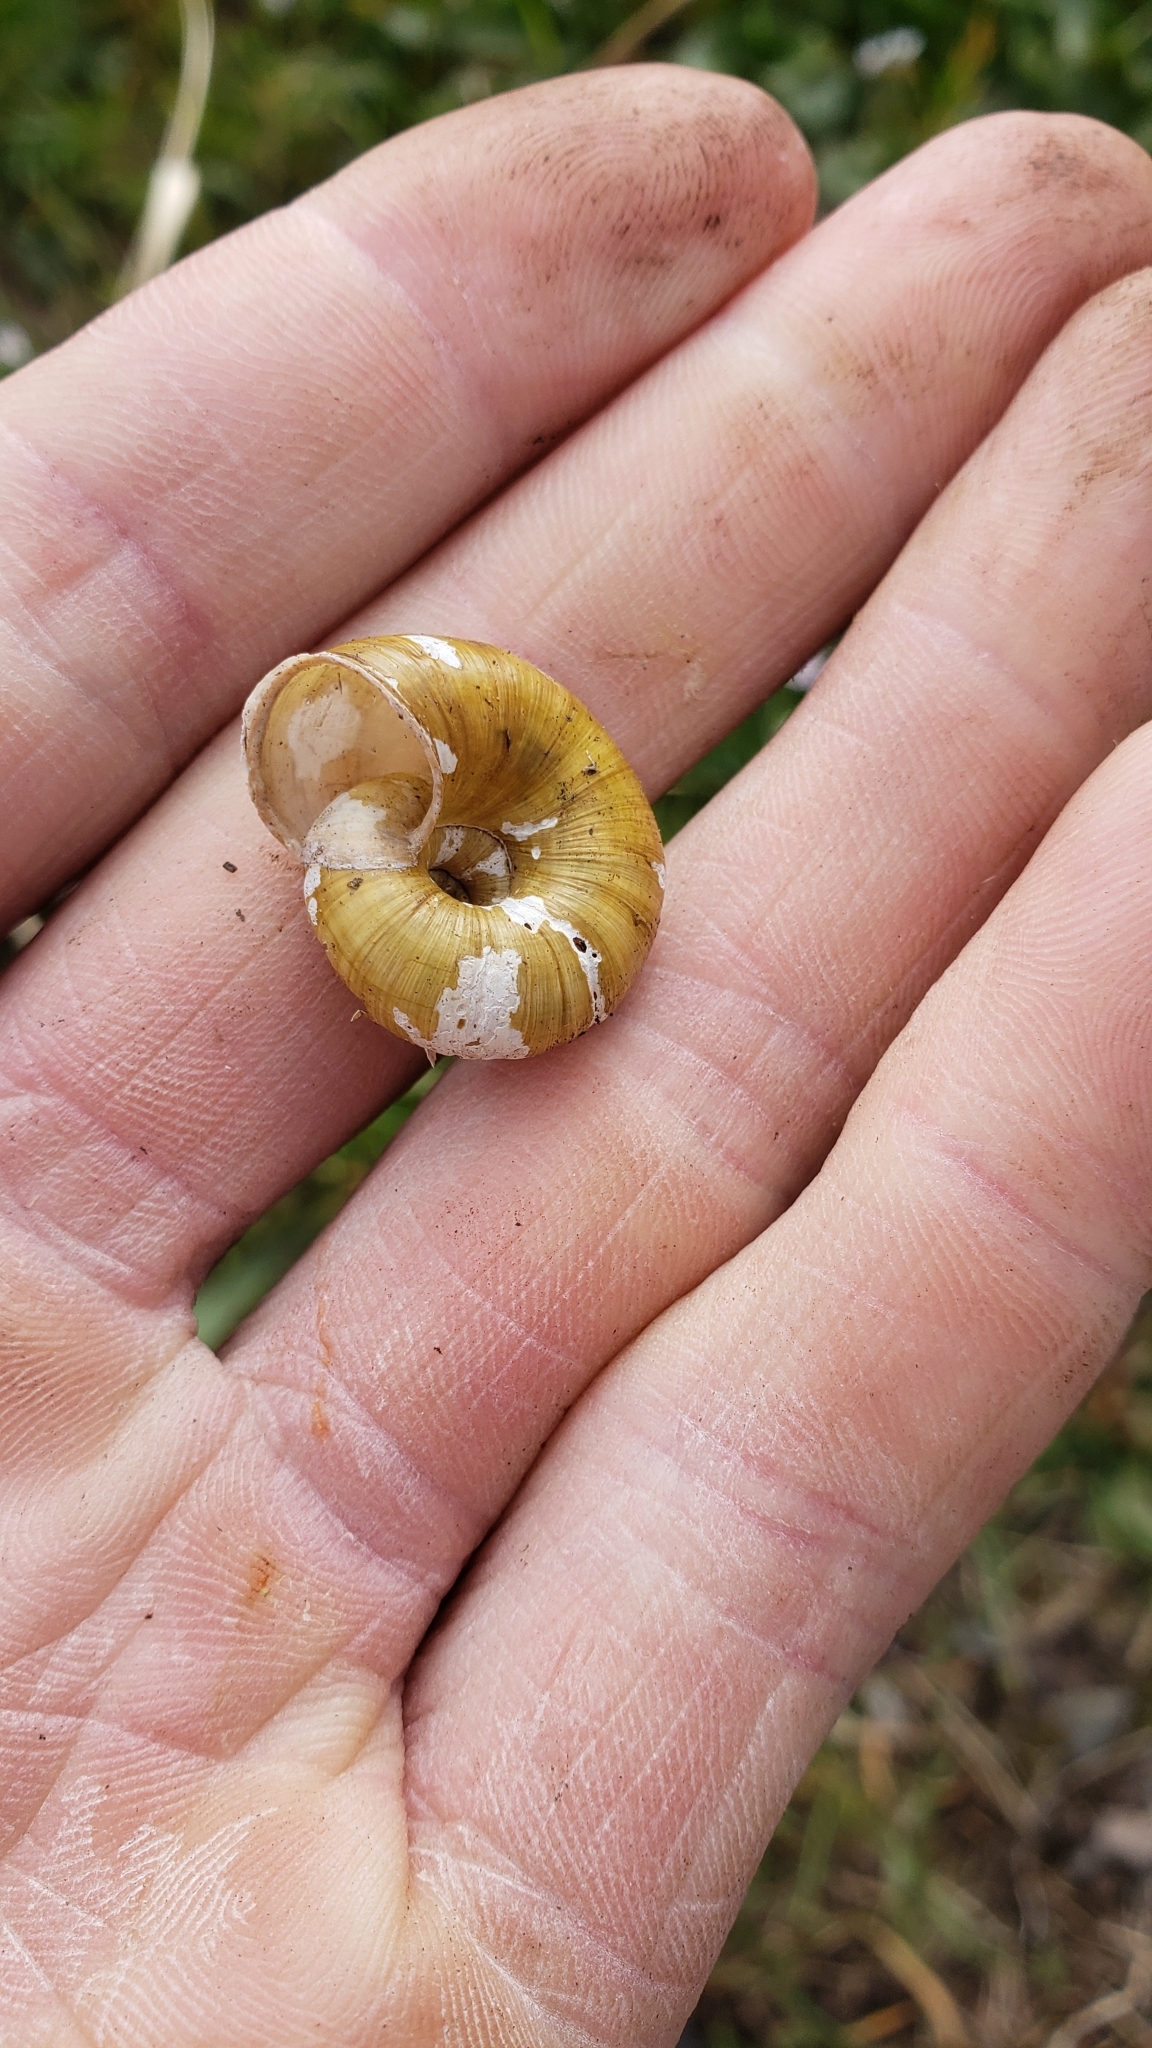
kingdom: Animalia
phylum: Mollusca
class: Gastropoda
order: Stylommatophora
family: Haplotrematidae
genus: Haplotrema
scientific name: Haplotrema vancouverense
